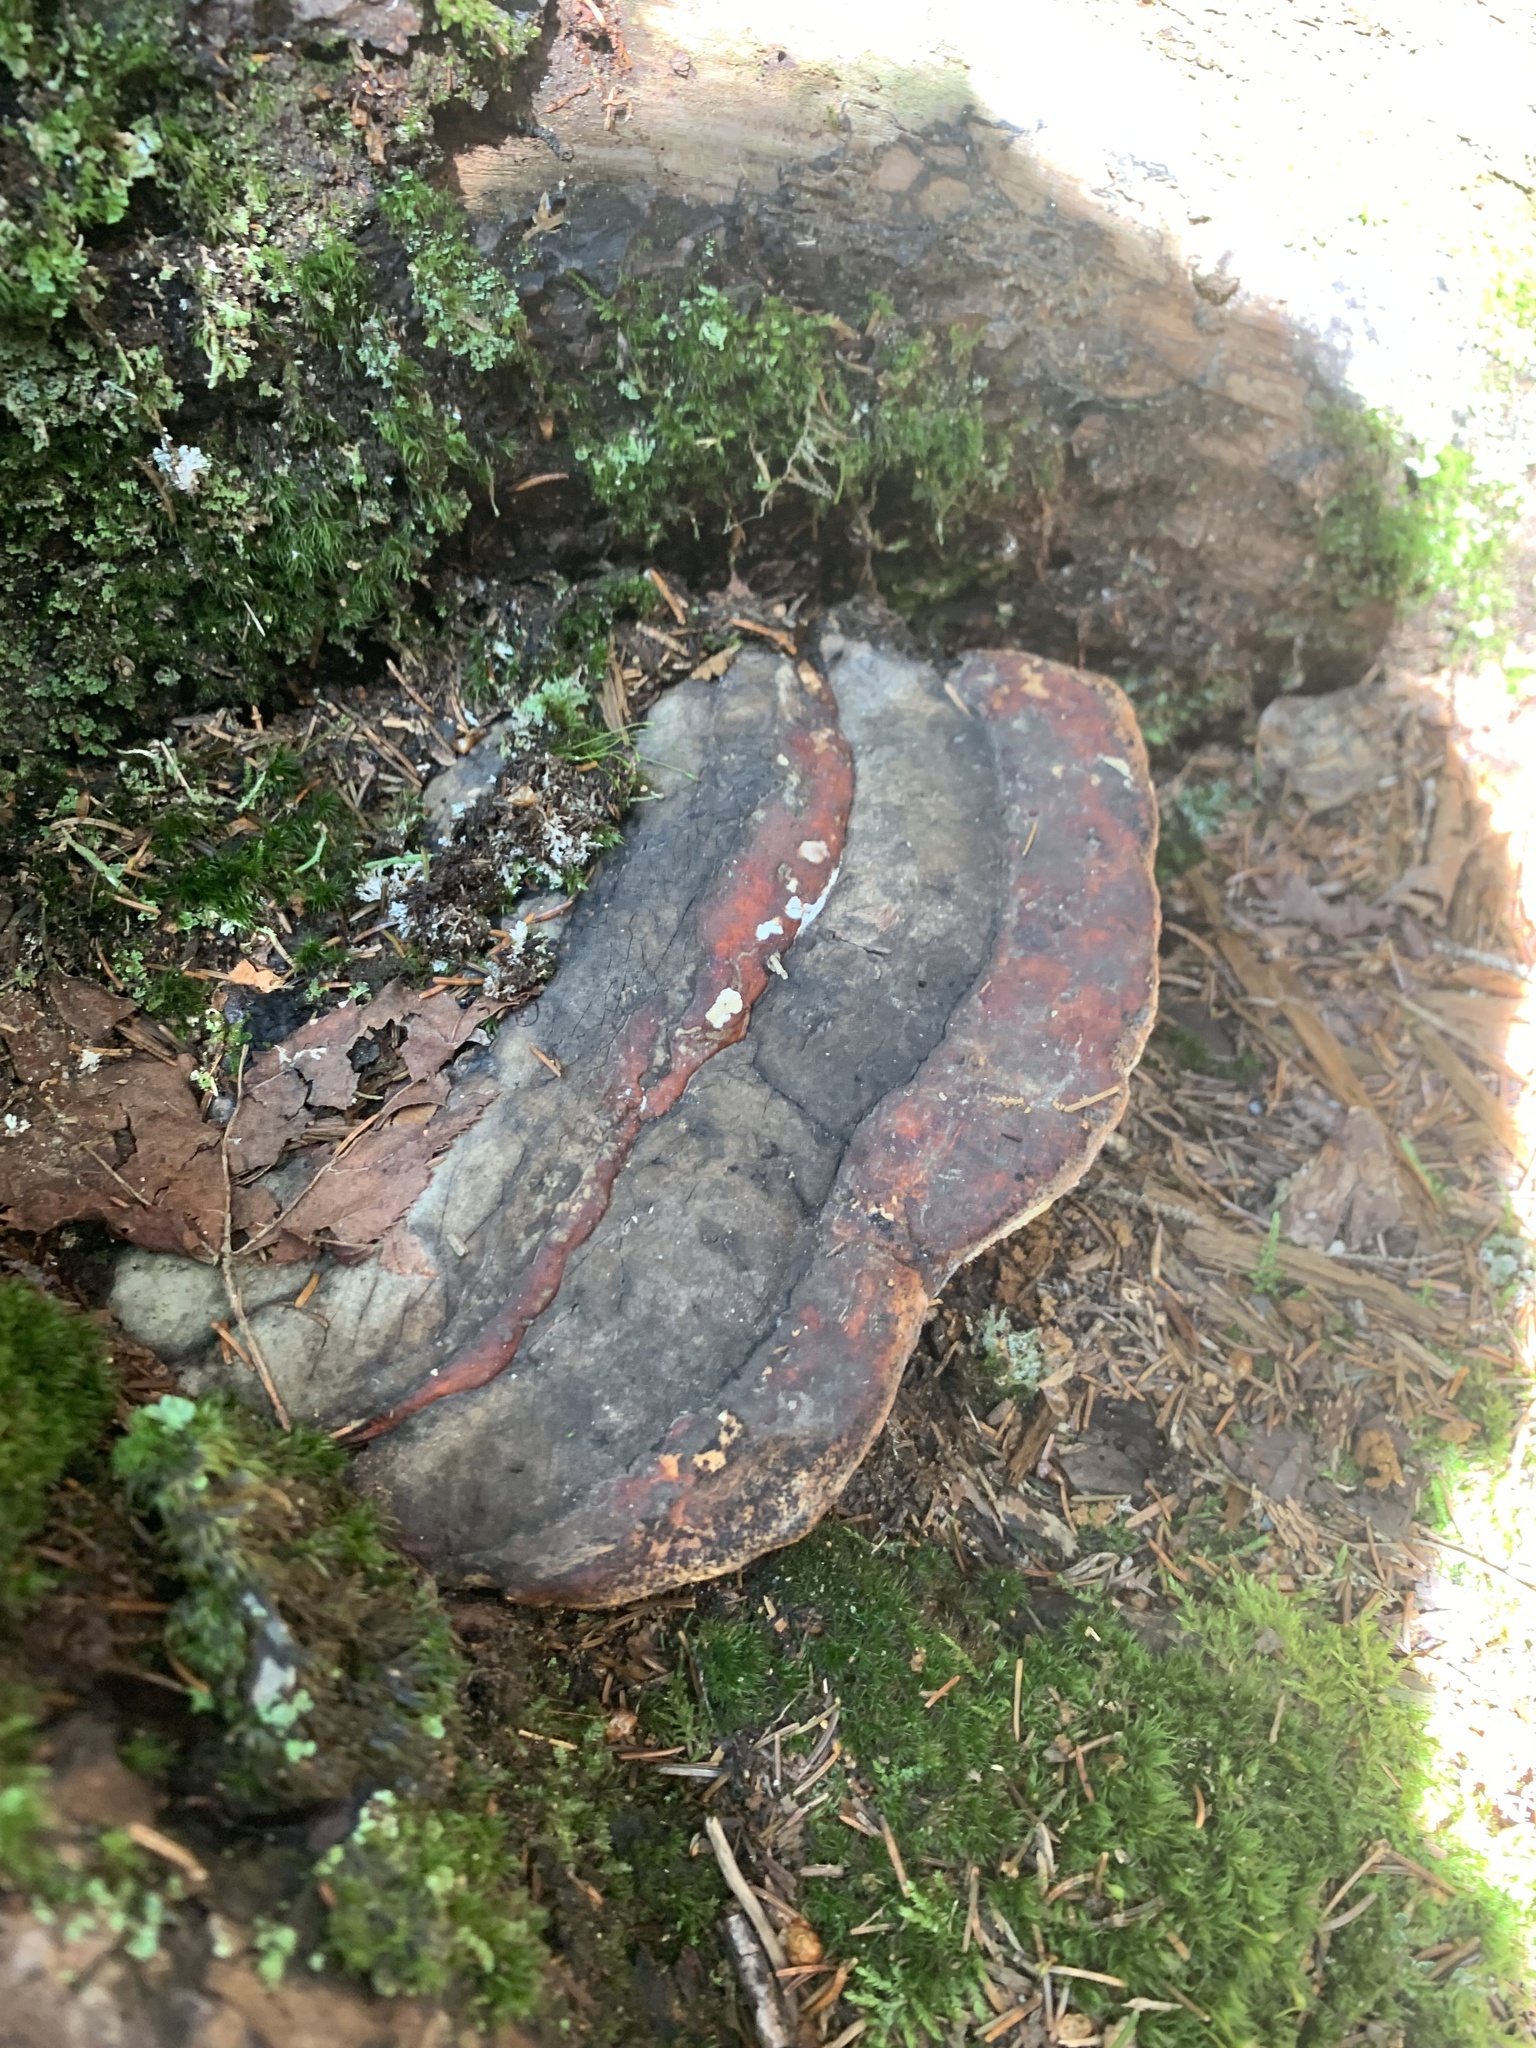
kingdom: Fungi
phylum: Basidiomycota
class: Agaricomycetes
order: Polyporales
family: Fomitopsidaceae
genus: Fomitopsis
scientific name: Fomitopsis mounceae
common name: Northern red belt
